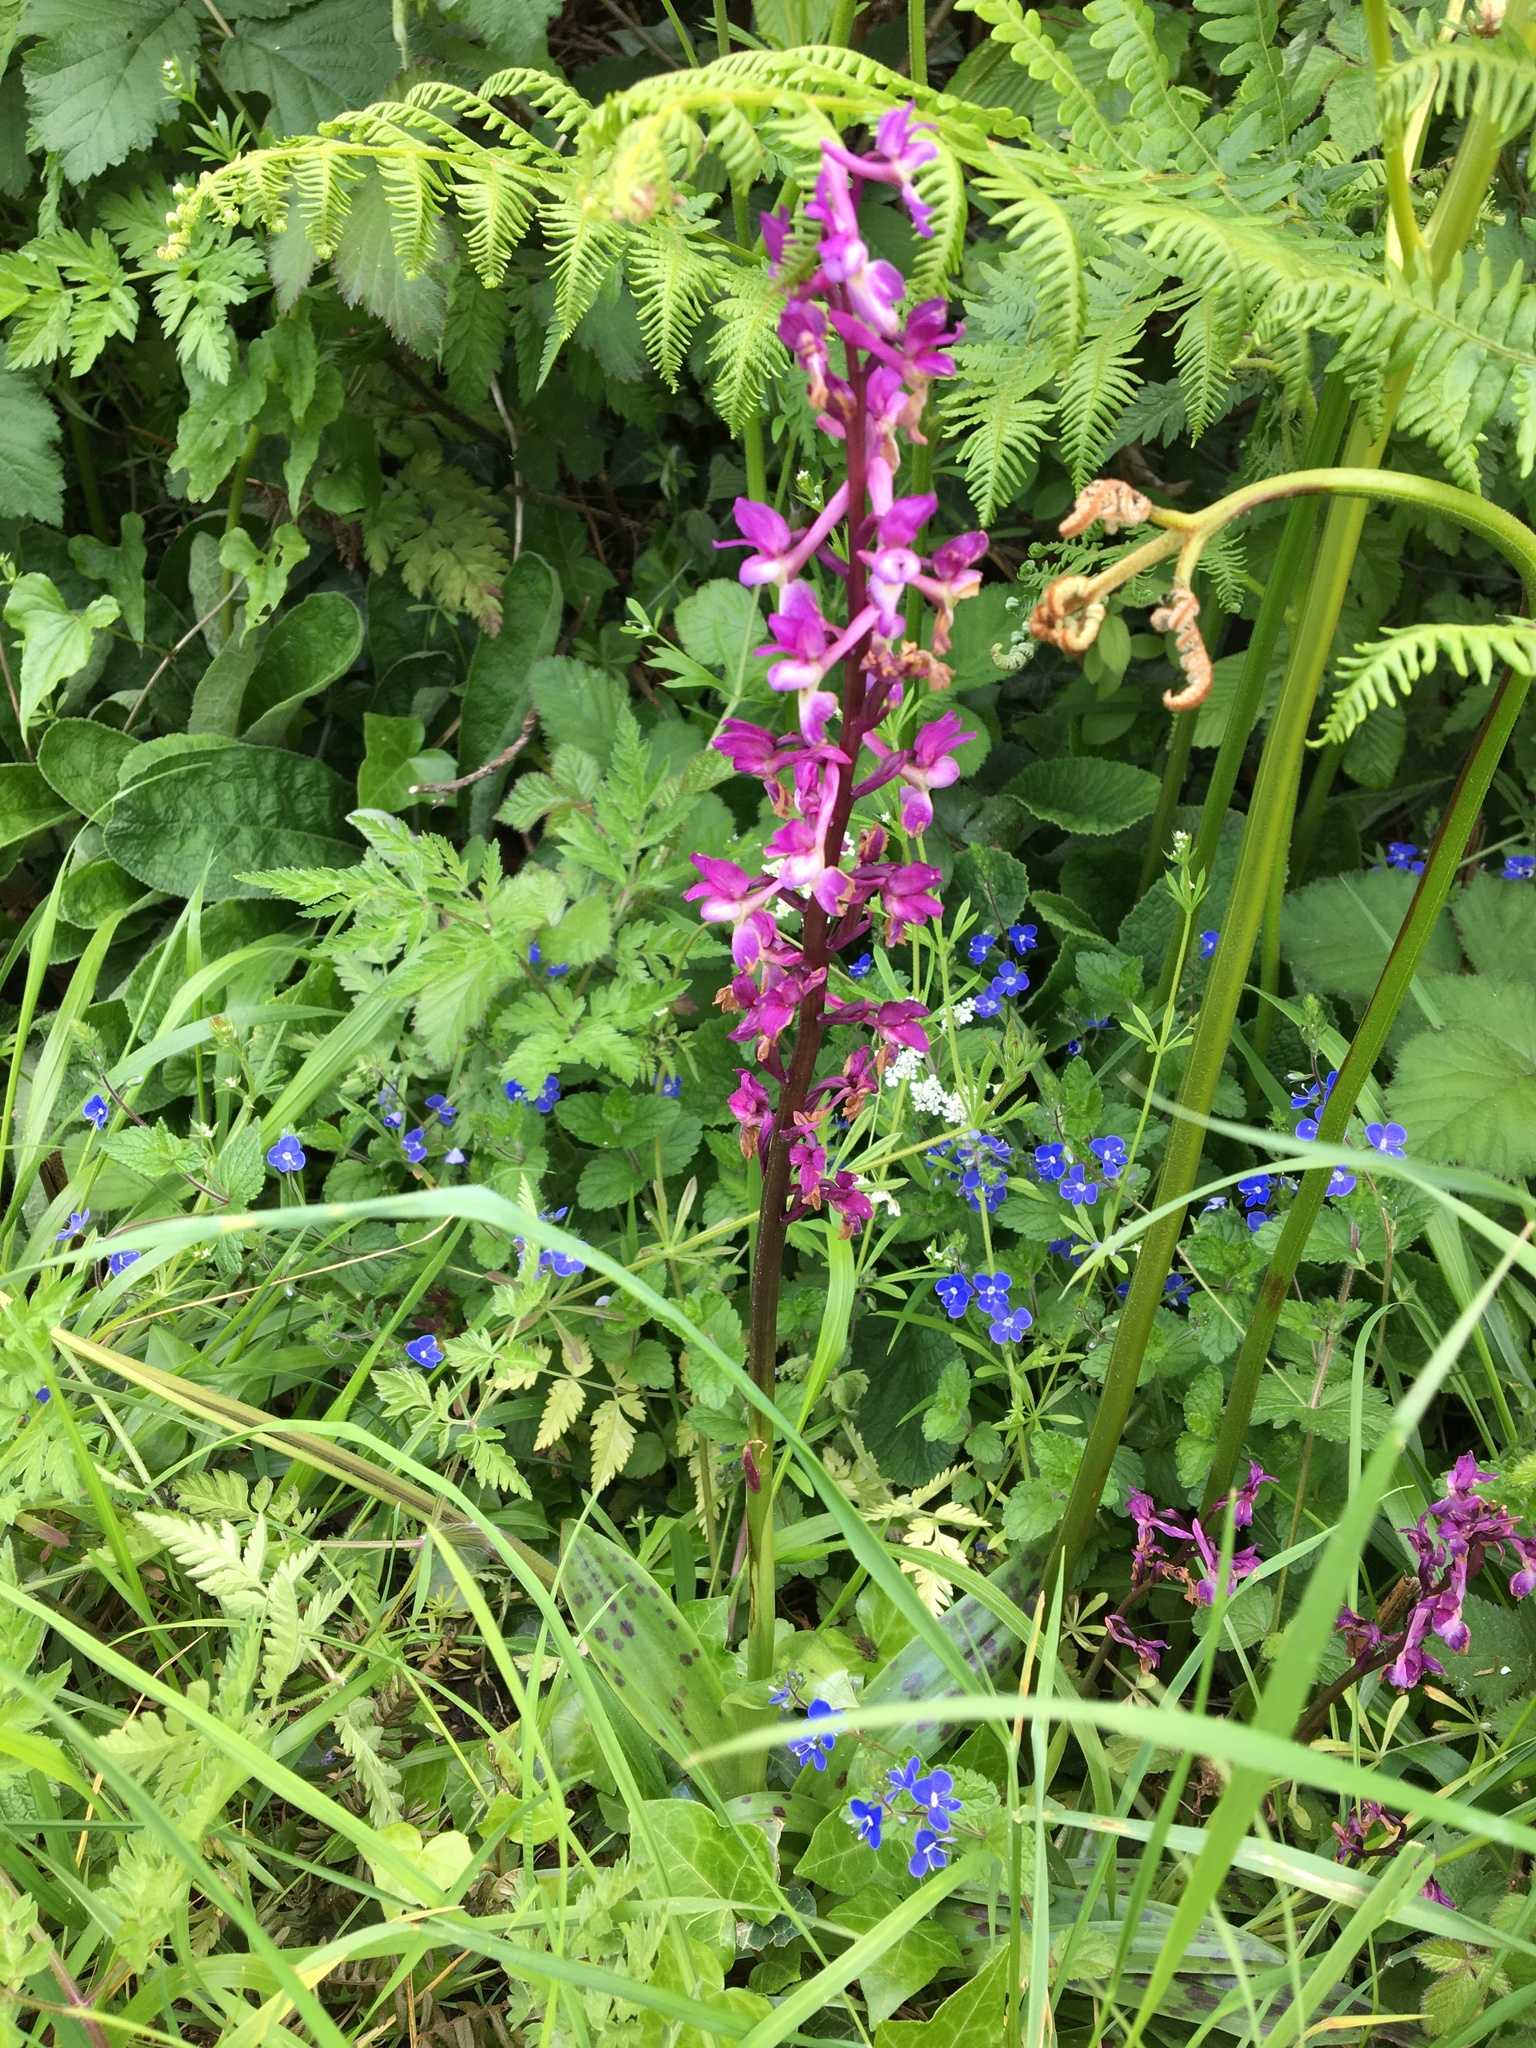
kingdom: Plantae
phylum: Tracheophyta
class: Liliopsida
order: Asparagales
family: Orchidaceae
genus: Orchis
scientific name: Orchis mascula
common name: Early-purple orchid
